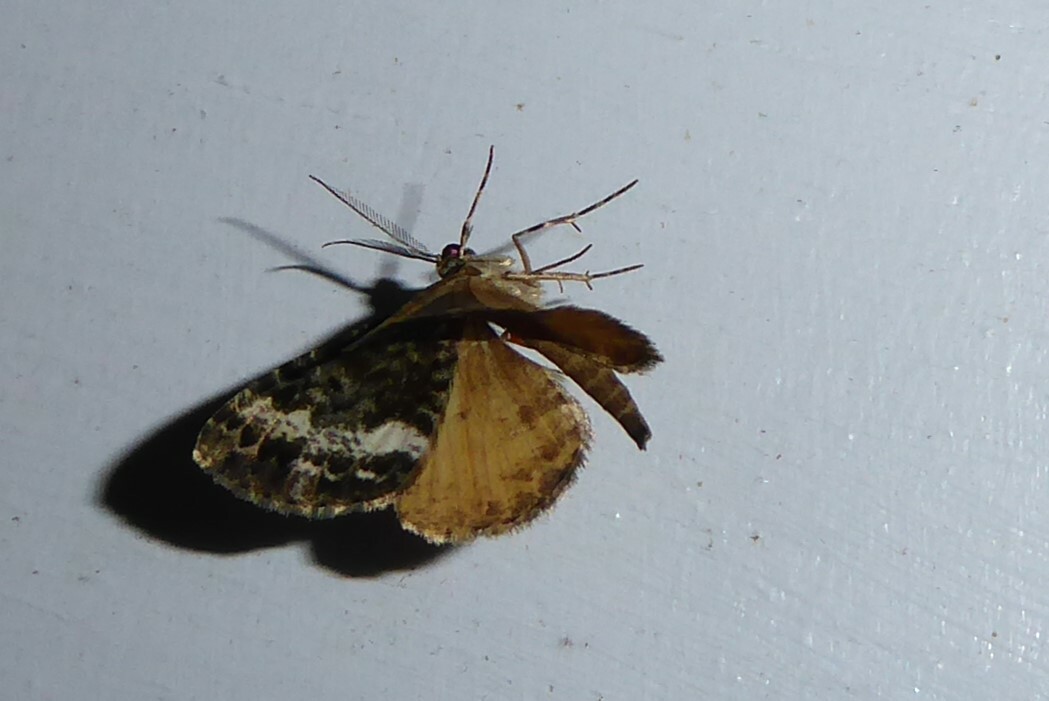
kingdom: Animalia
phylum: Arthropoda
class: Insecta
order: Lepidoptera
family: Geometridae
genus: Pseudocoremia
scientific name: Pseudocoremia lactiflua
